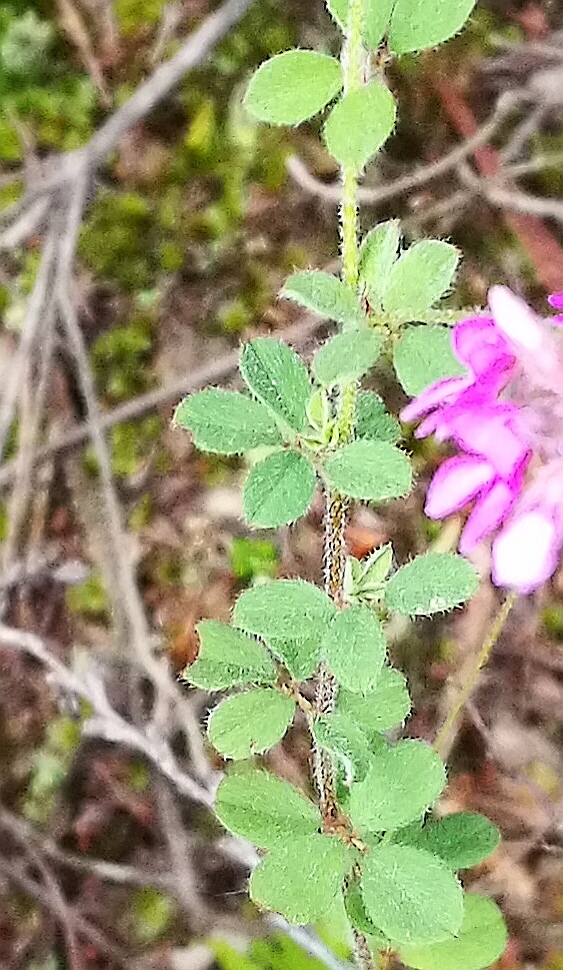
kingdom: Plantae
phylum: Tracheophyta
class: Magnoliopsida
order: Fabales
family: Fabaceae
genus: Indigofera
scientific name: Indigofera alopecuroides
